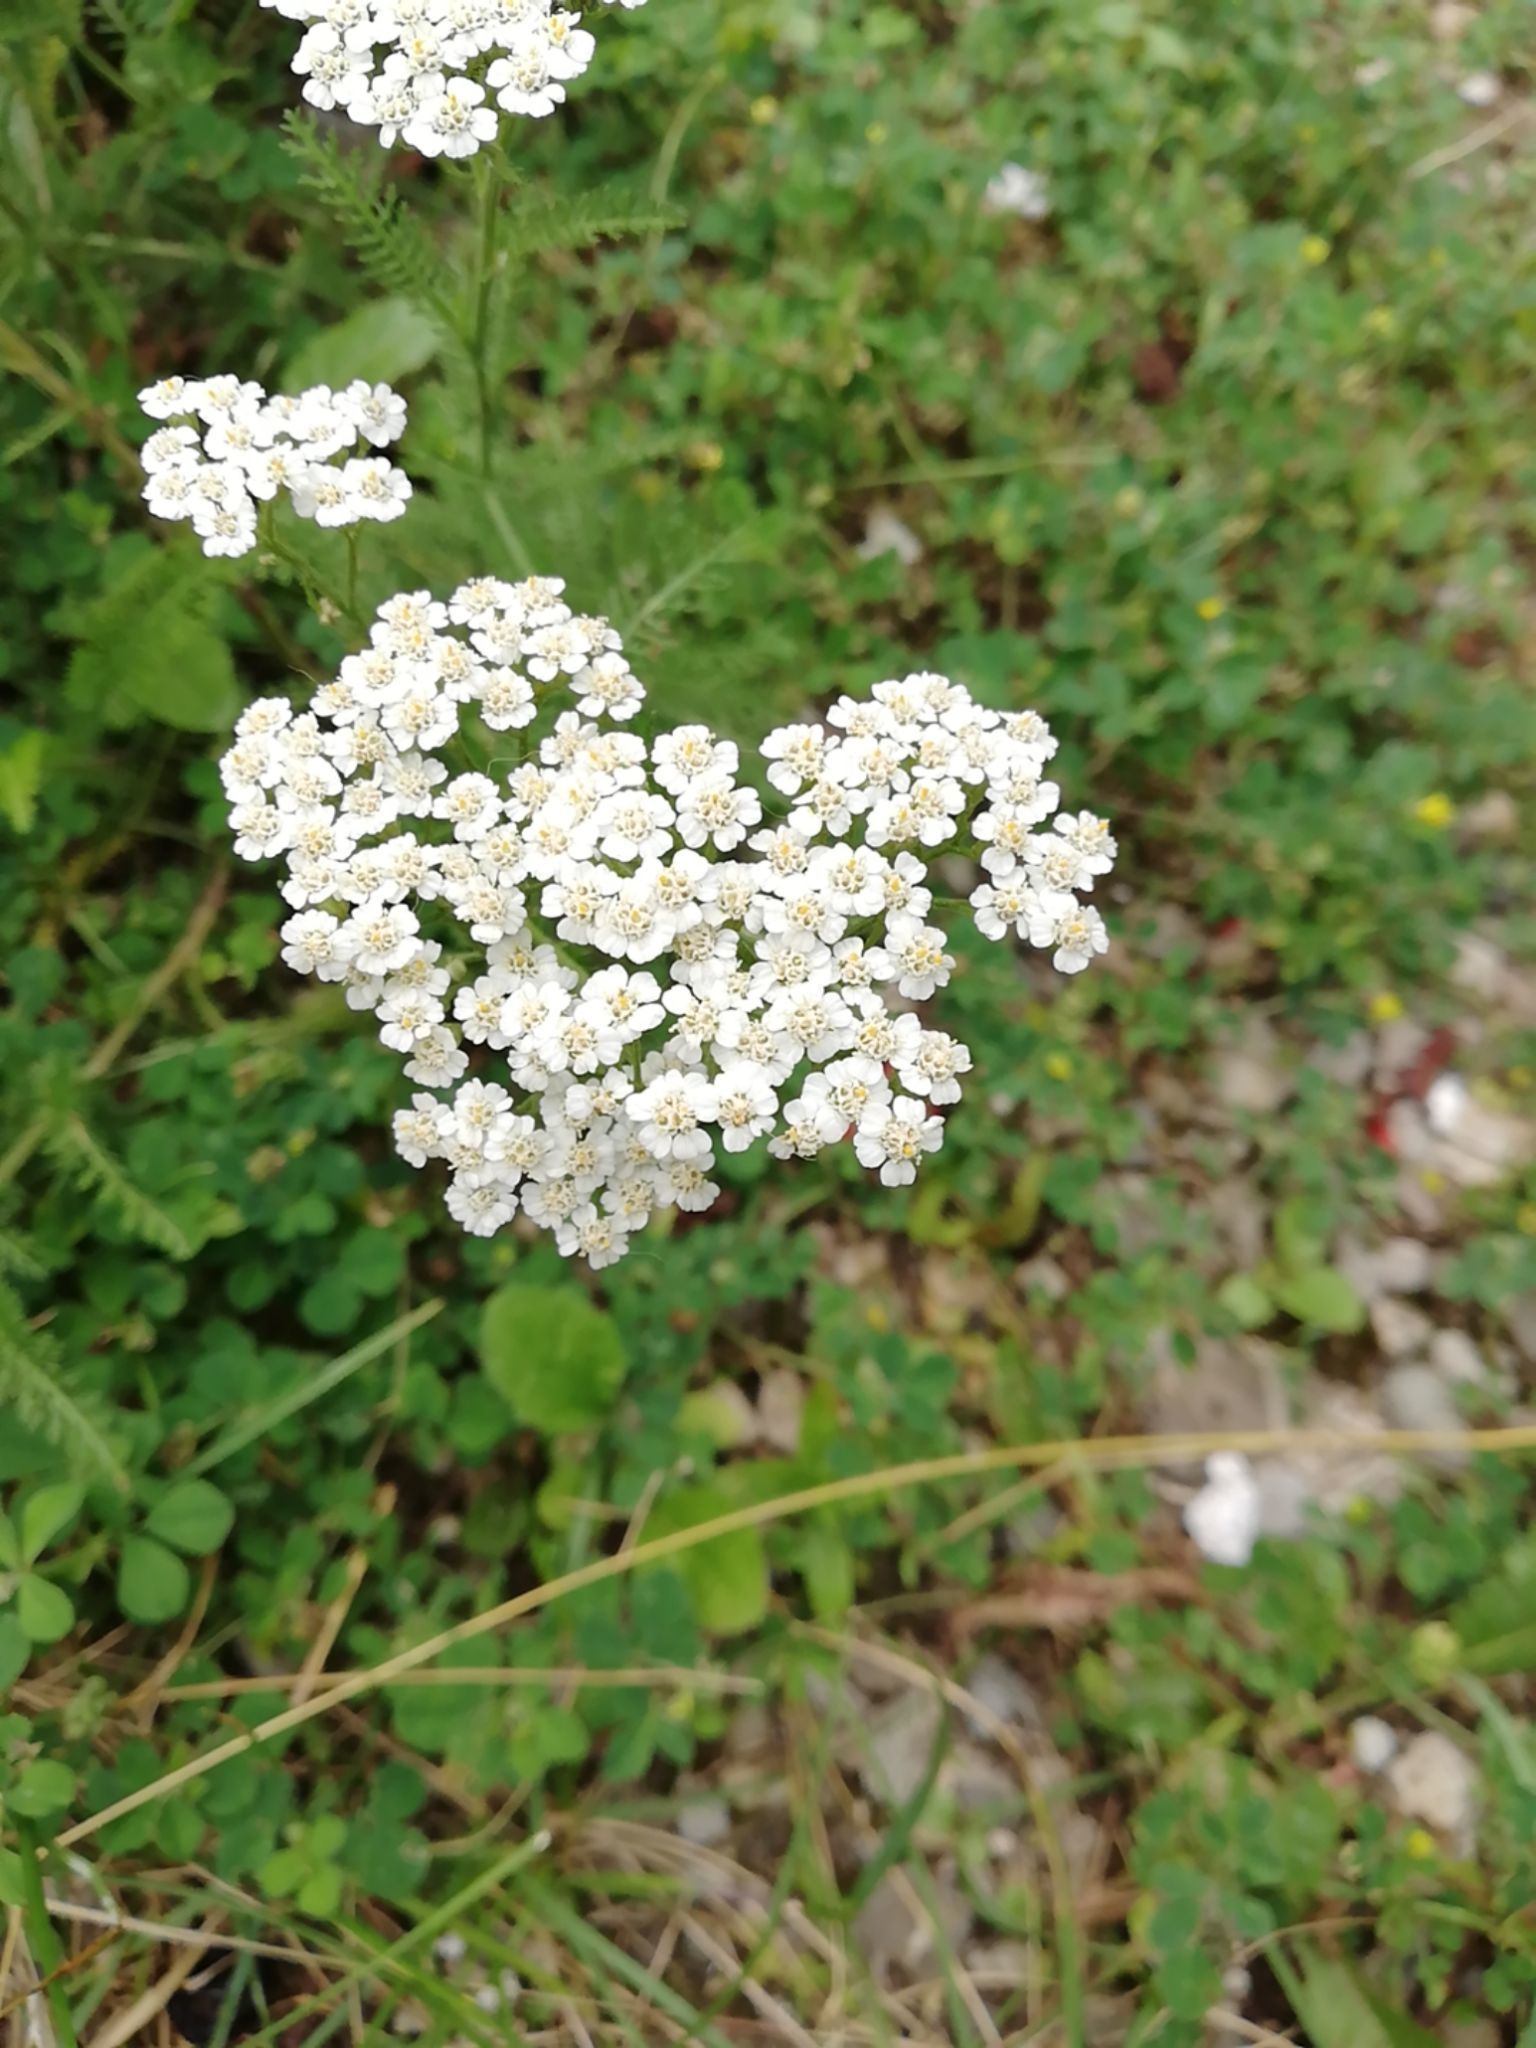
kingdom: Plantae
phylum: Tracheophyta
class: Magnoliopsida
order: Asterales
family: Asteraceae
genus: Achillea
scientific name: Achillea millefolium
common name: Yarrow
